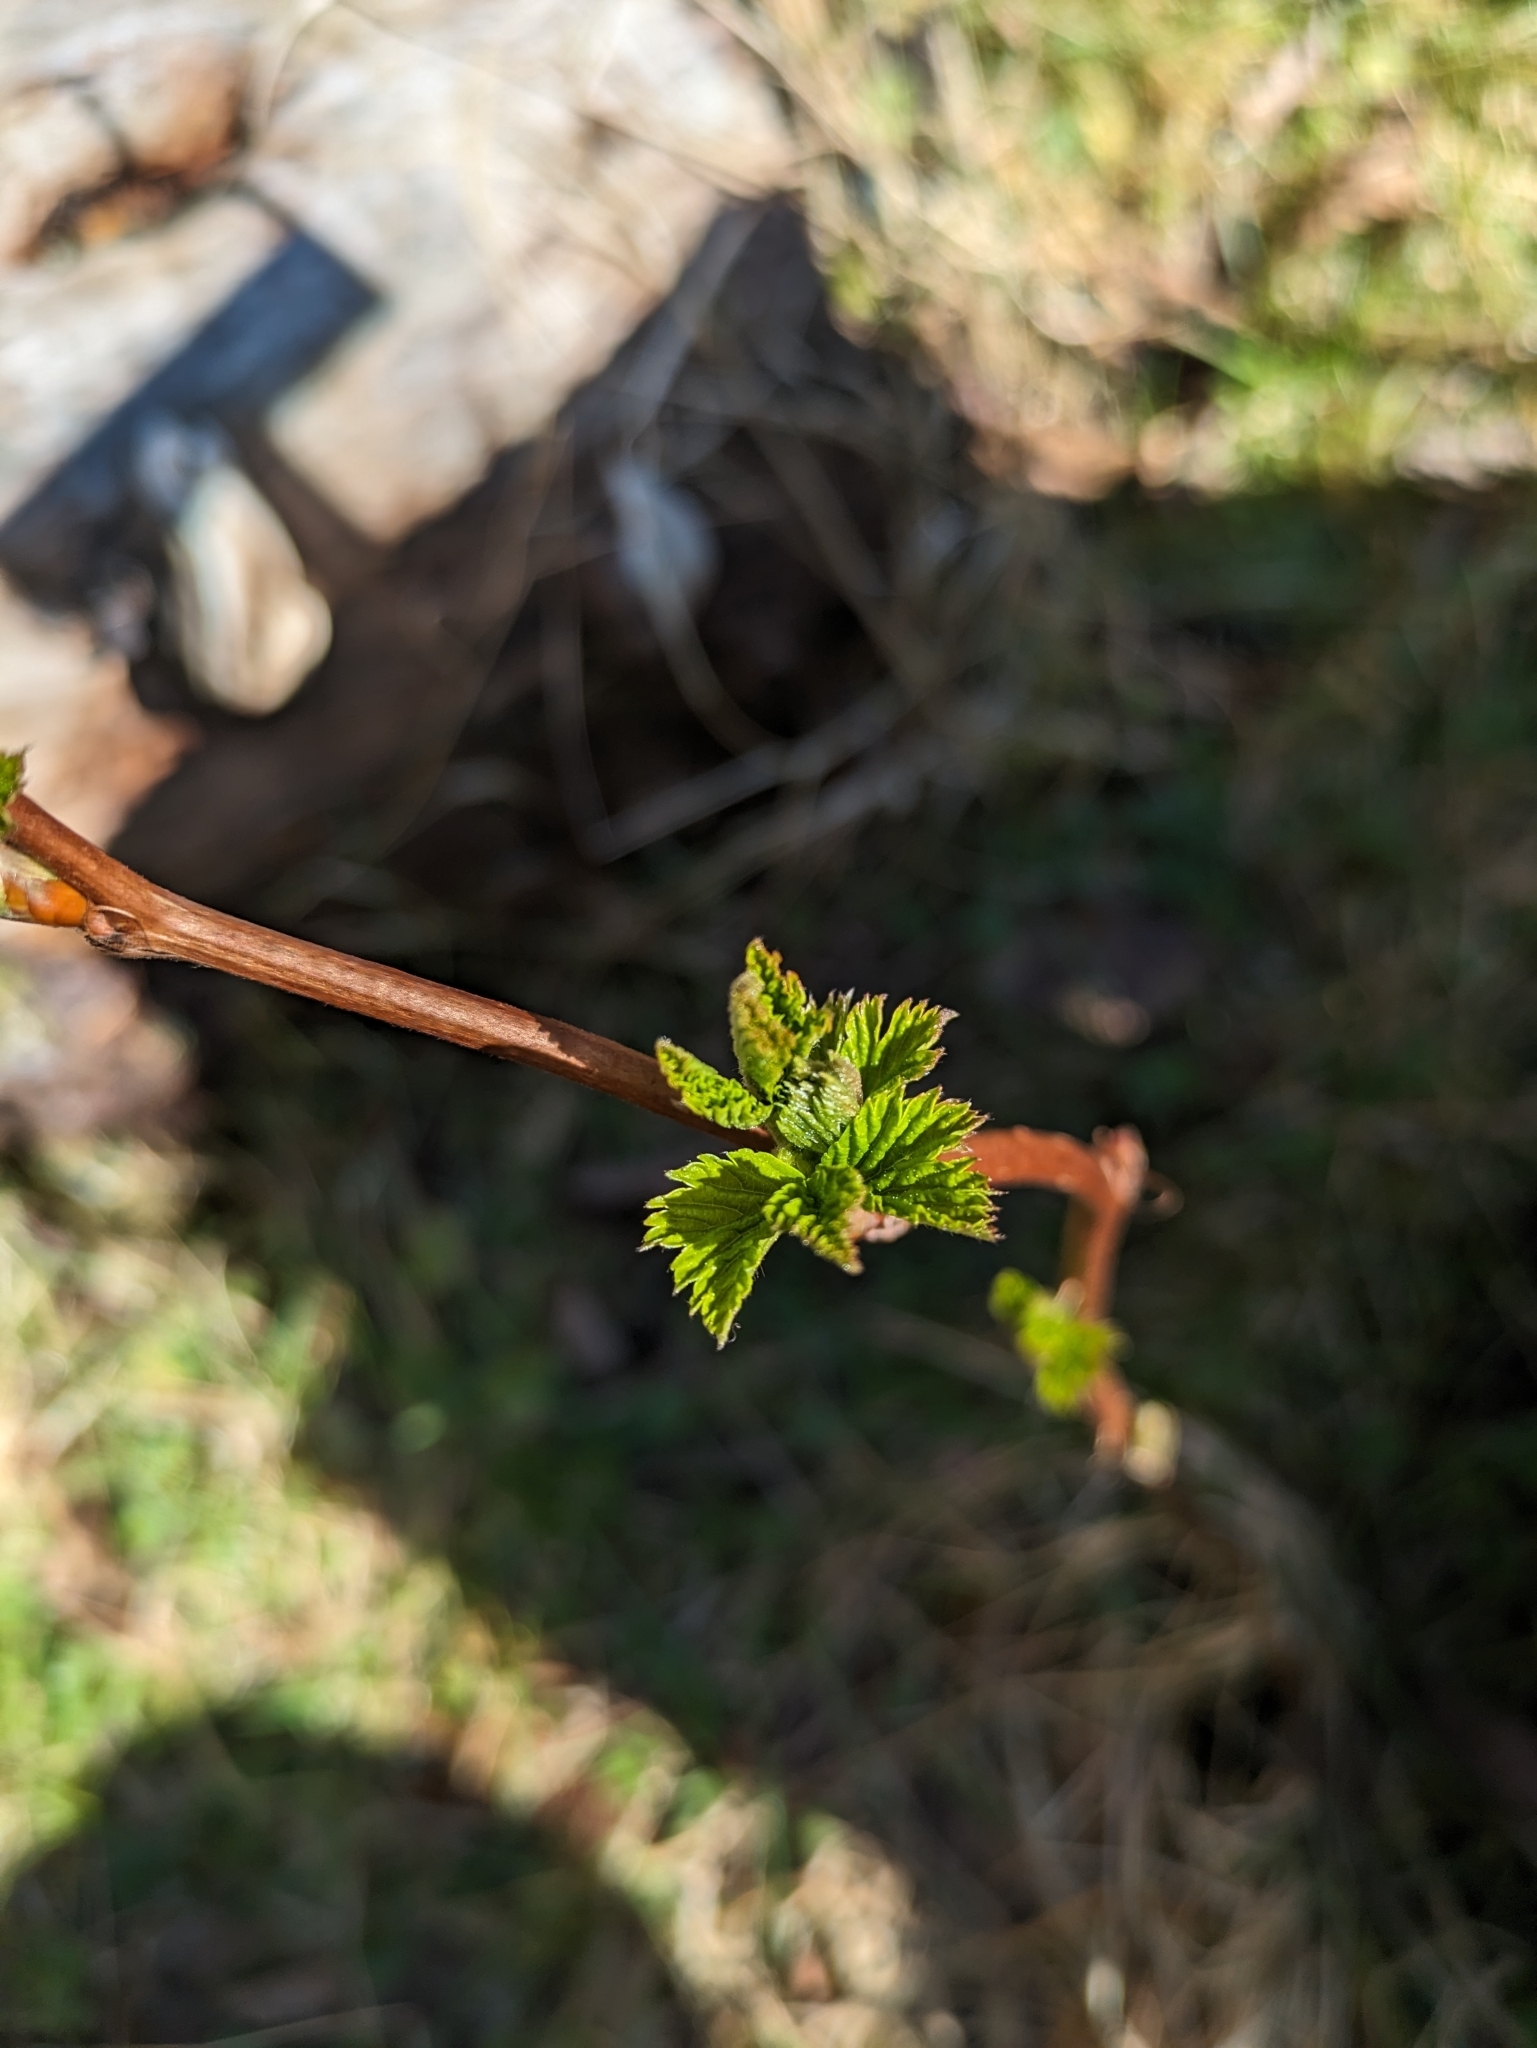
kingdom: Plantae
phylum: Tracheophyta
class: Magnoliopsida
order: Rosales
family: Rosaceae
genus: Rubus
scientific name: Rubus spectabilis
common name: Salmonberry
